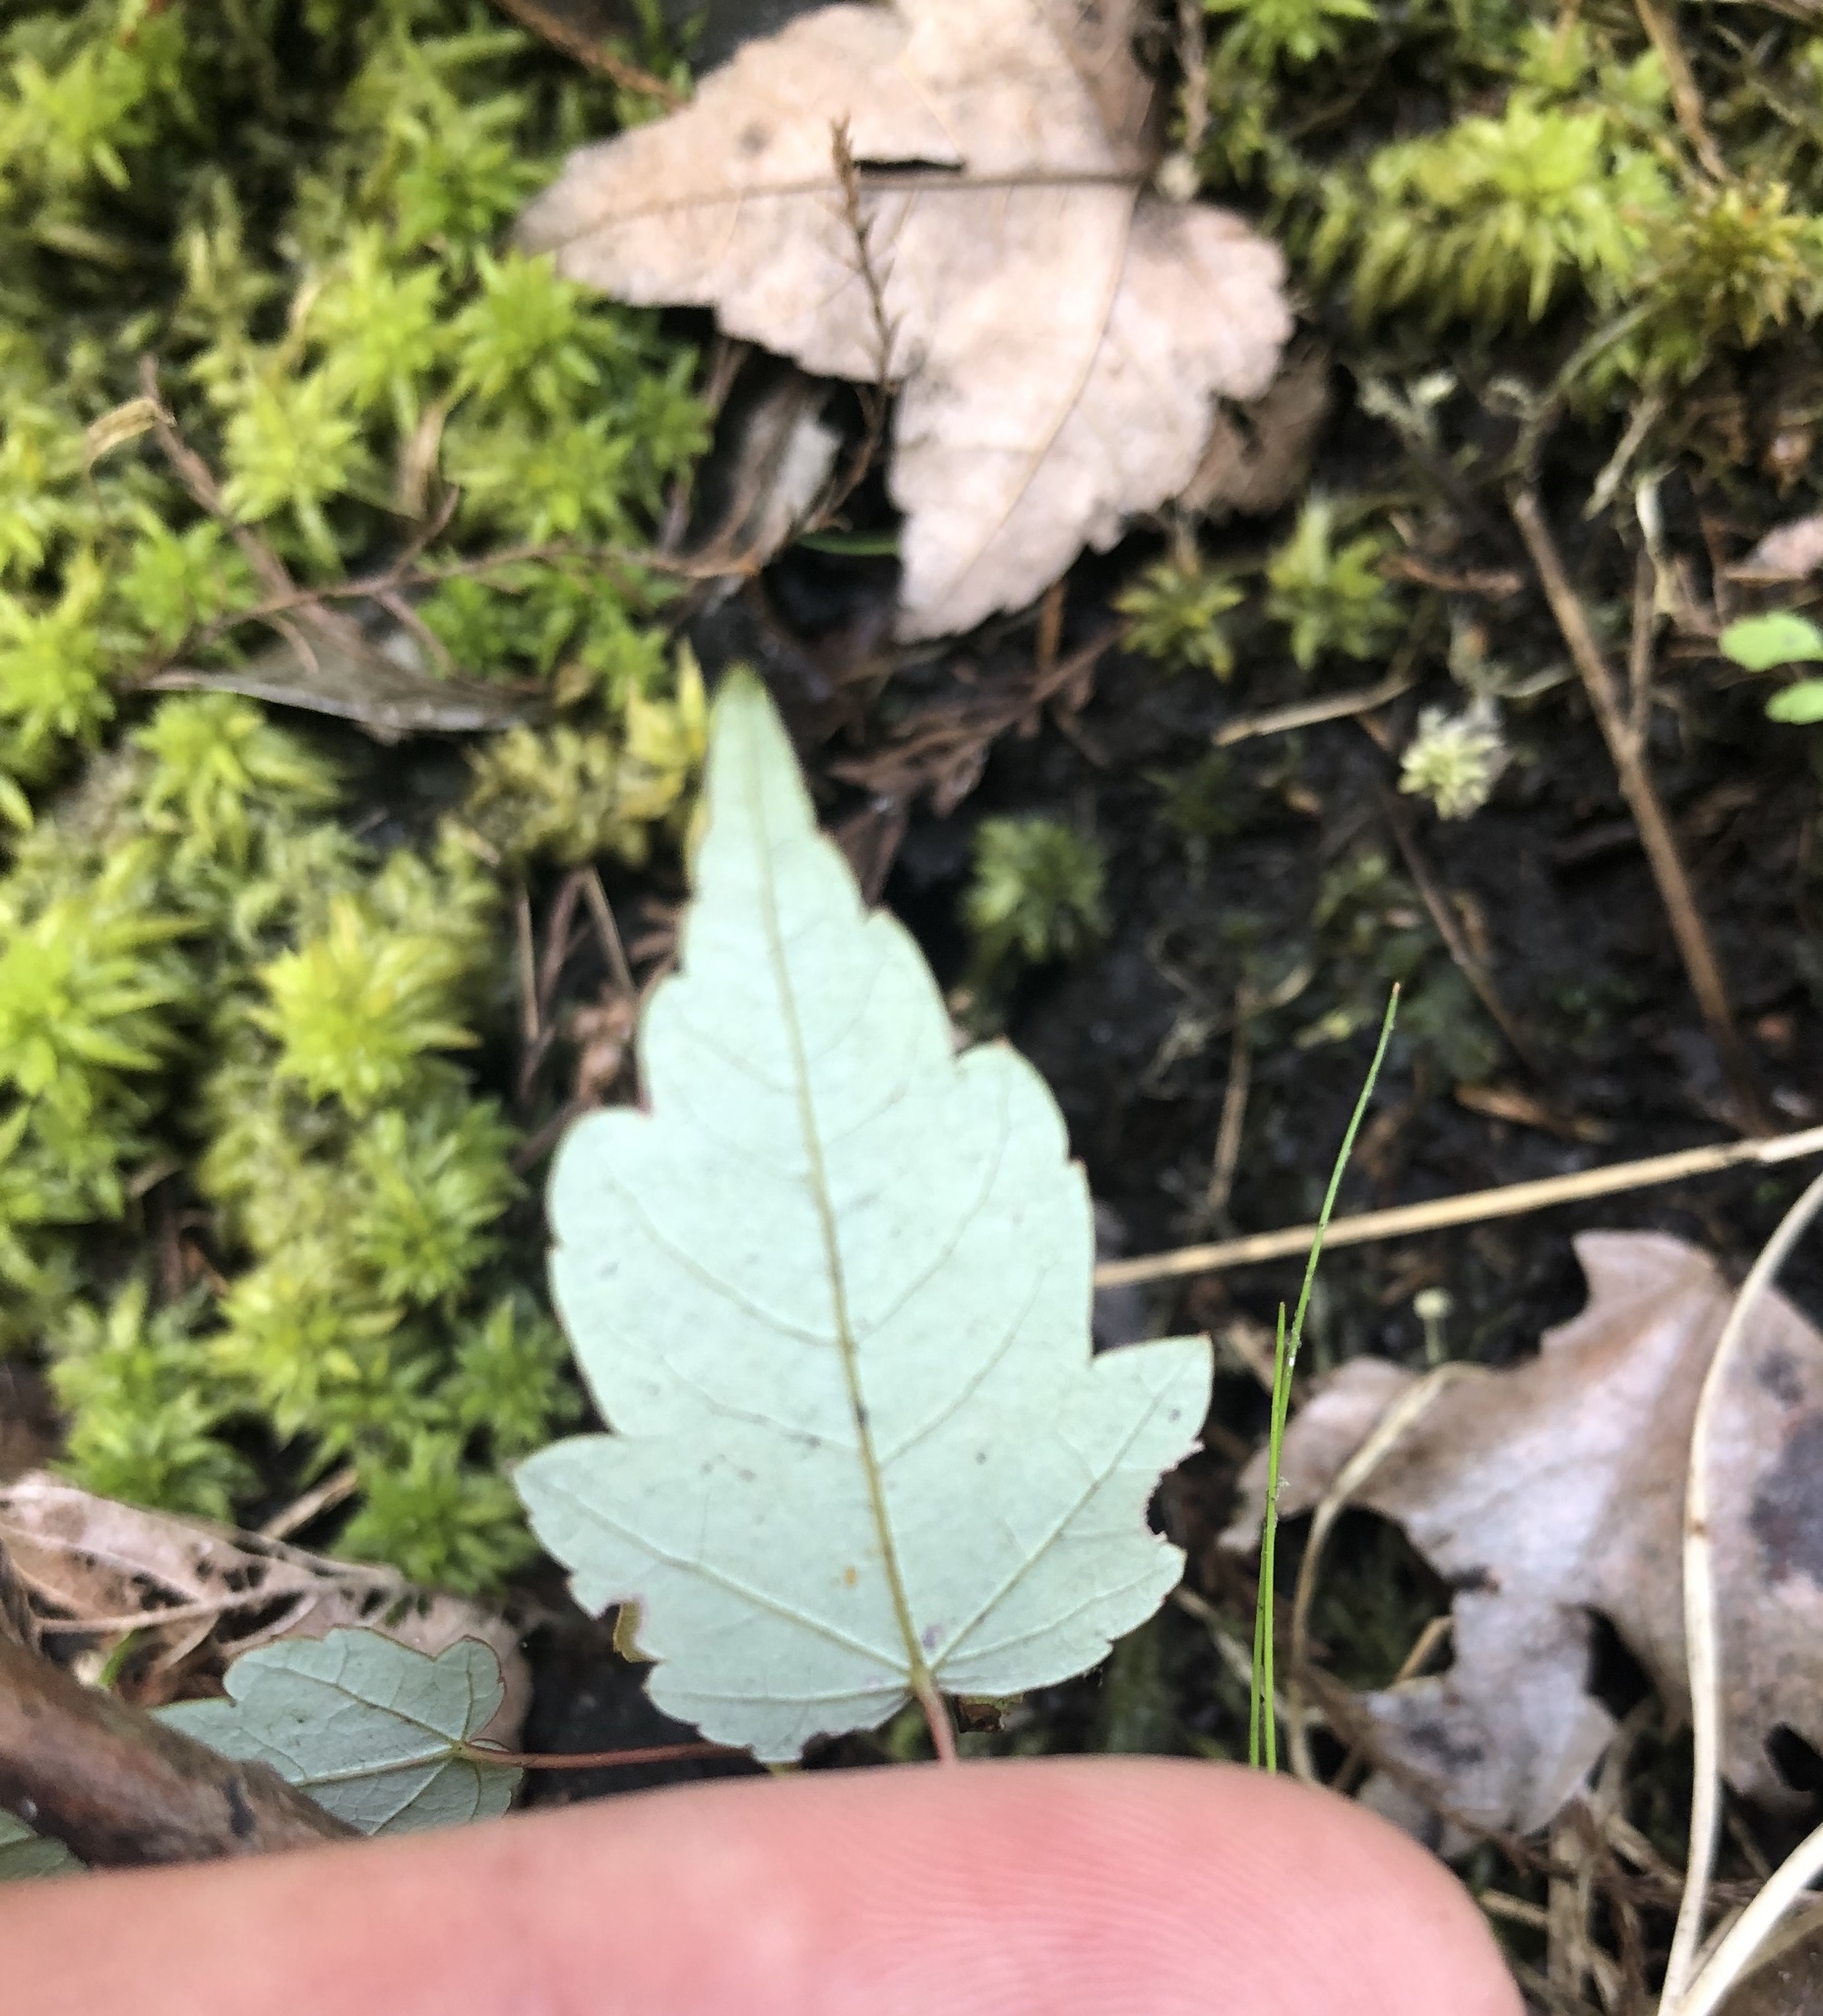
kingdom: Plantae
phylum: Tracheophyta
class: Magnoliopsida
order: Sapindales
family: Sapindaceae
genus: Acer
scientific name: Acer rubrum
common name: Red maple
